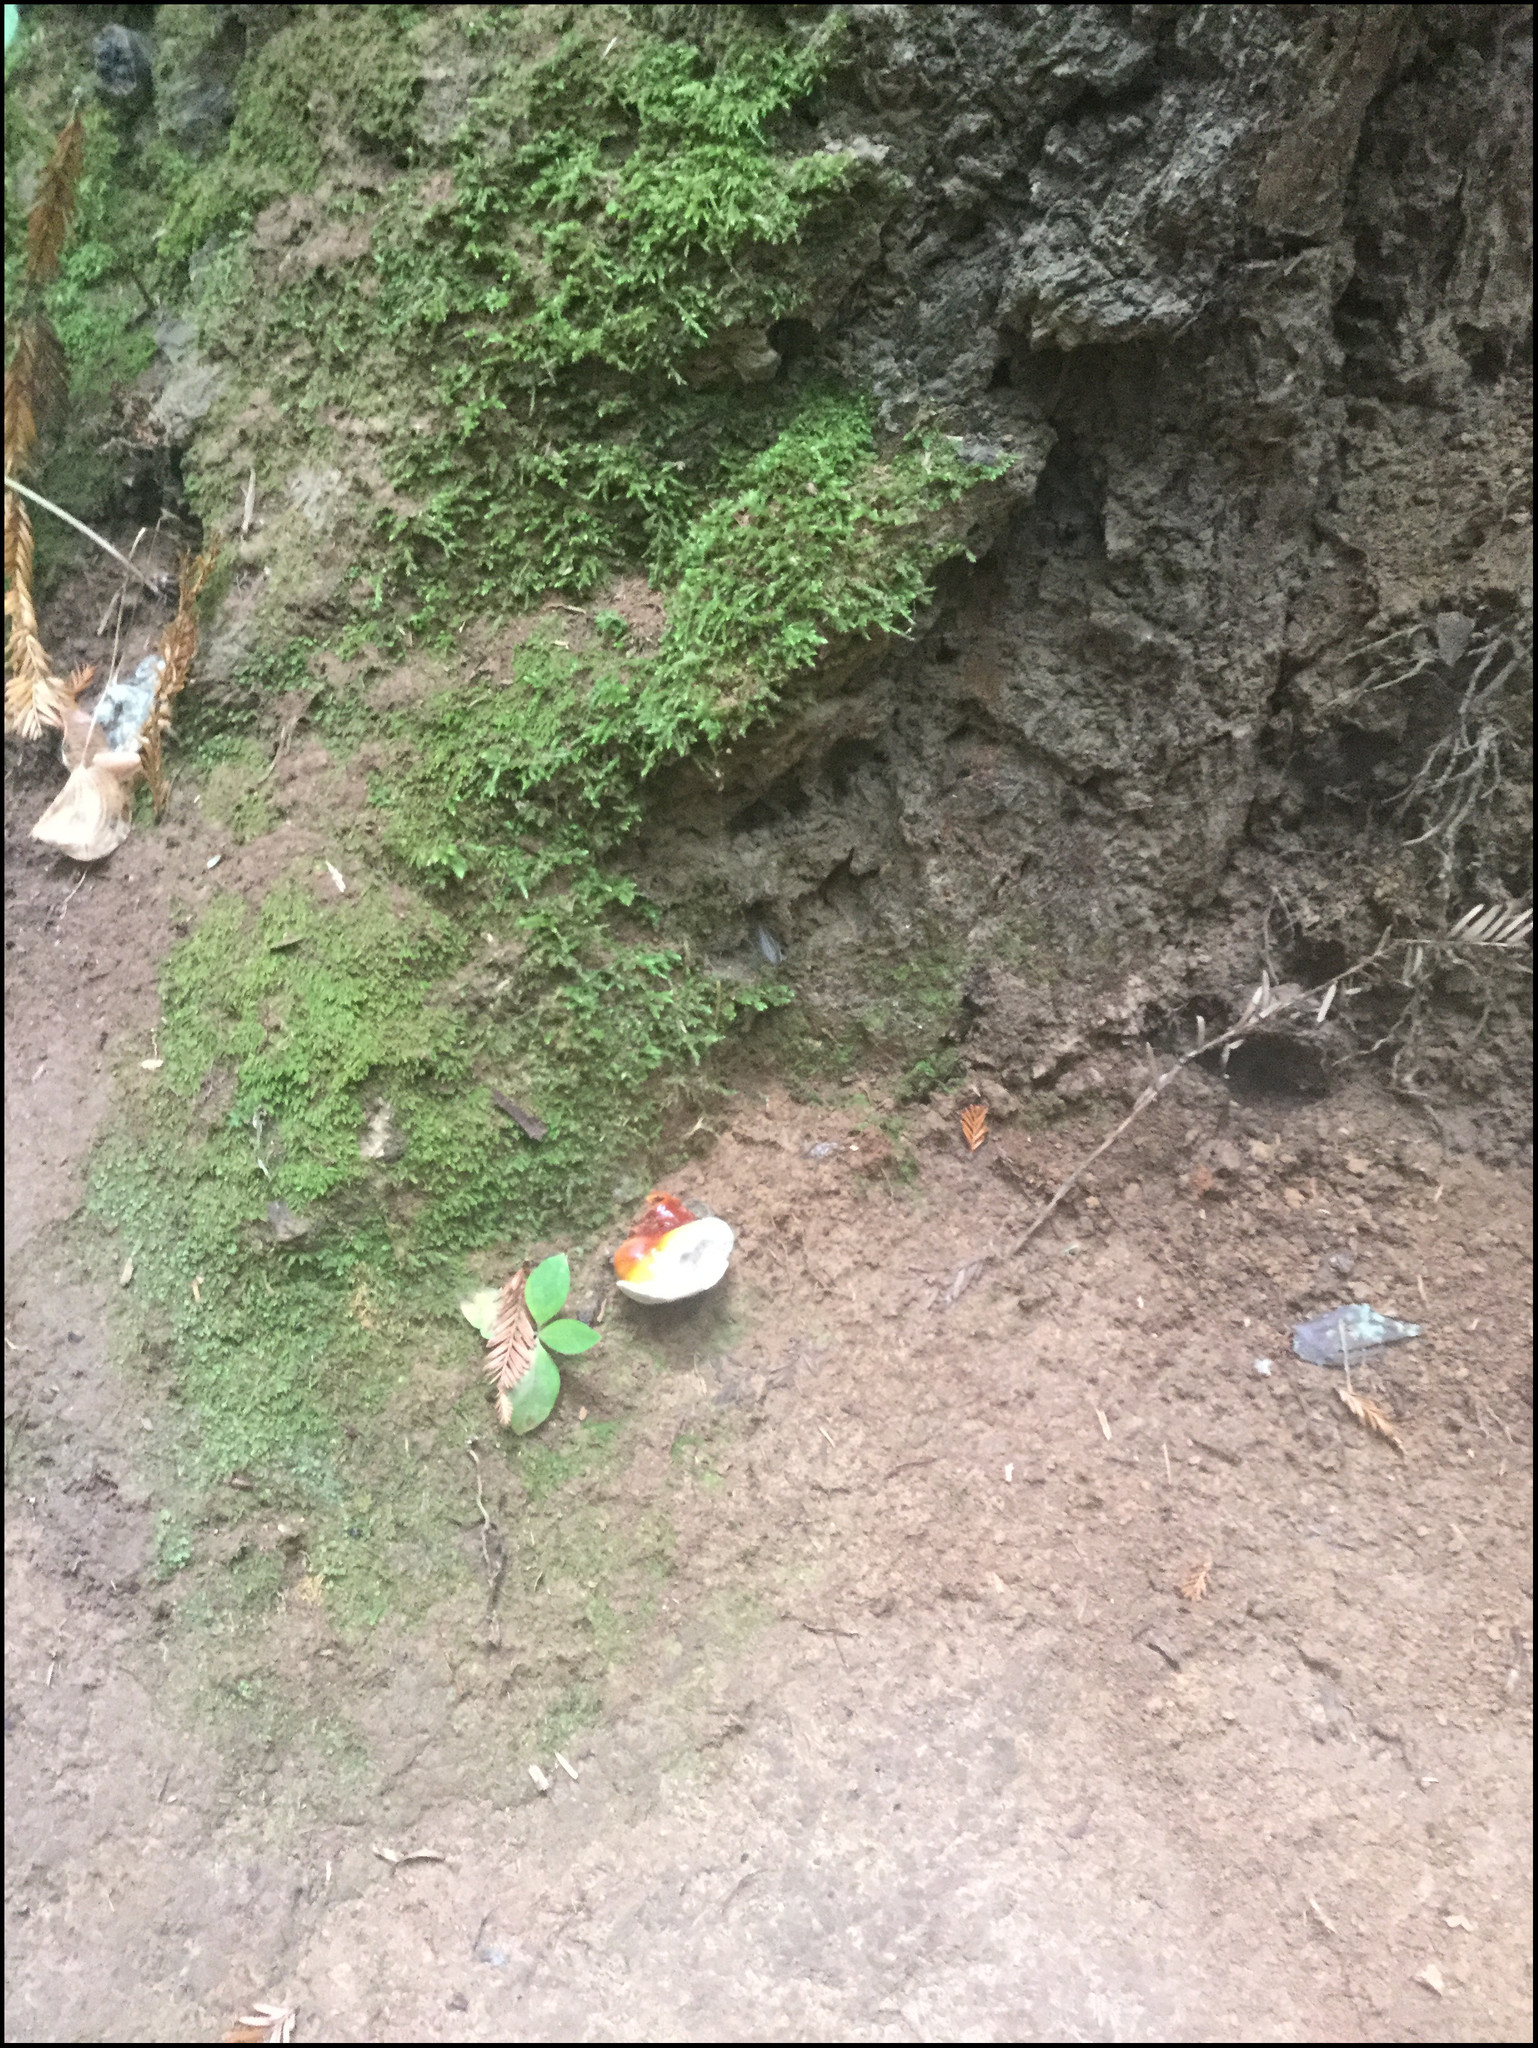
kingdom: Fungi
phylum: Basidiomycota
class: Agaricomycetes
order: Polyporales
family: Polyporaceae
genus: Ganoderma
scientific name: Ganoderma oregonense
